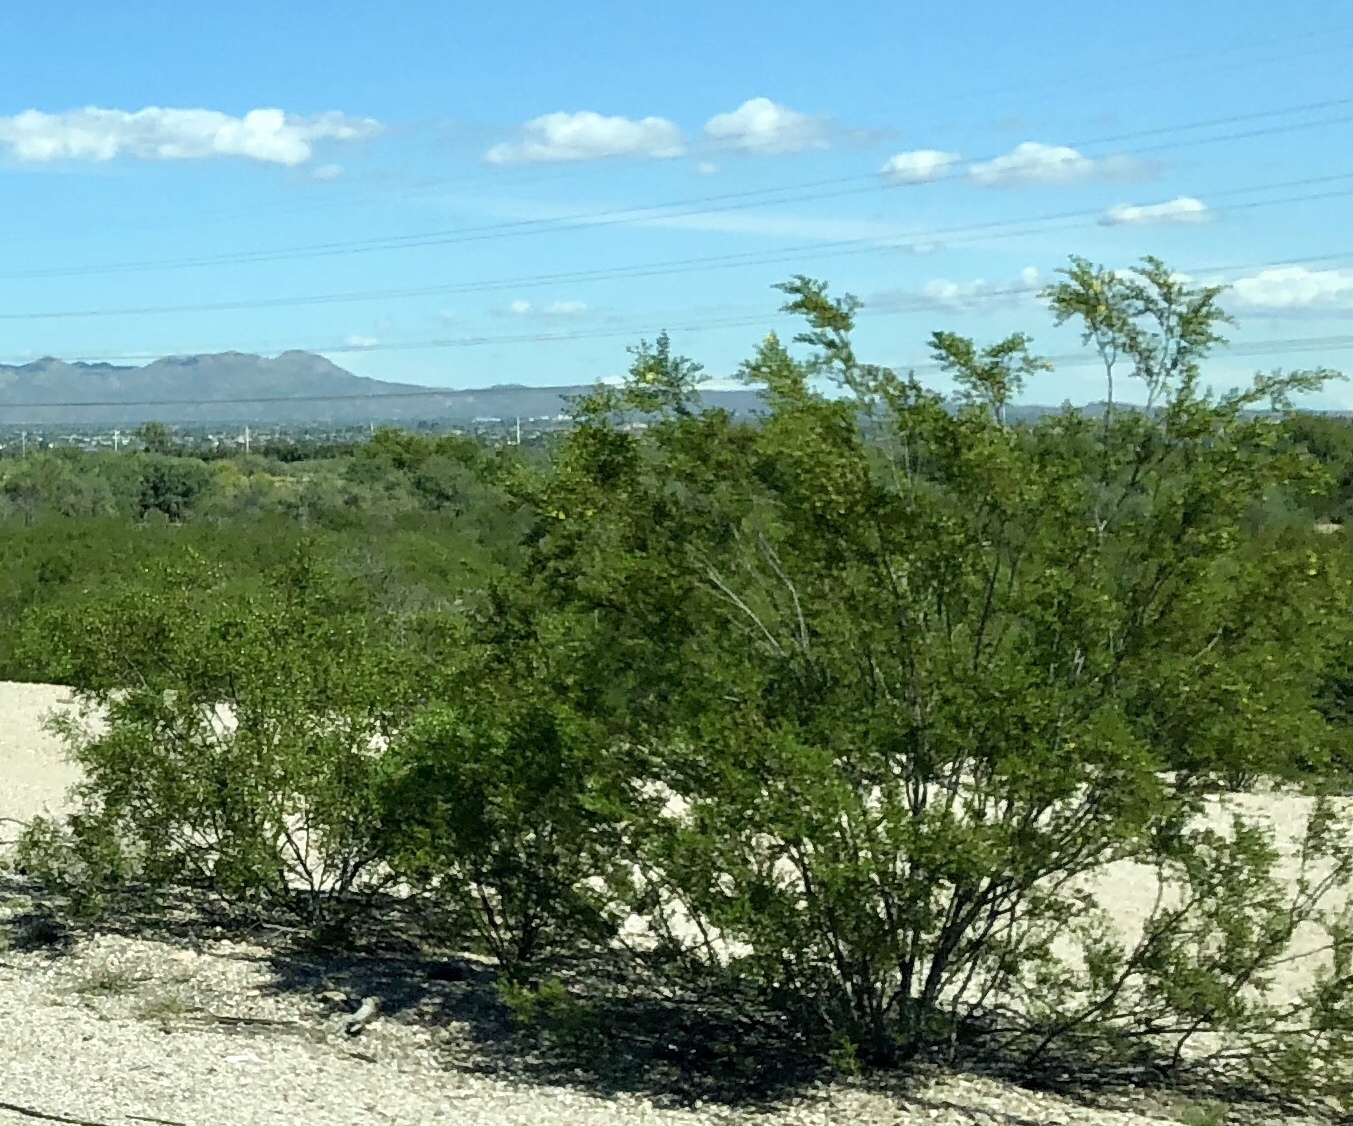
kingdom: Plantae
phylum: Tracheophyta
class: Magnoliopsida
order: Zygophyllales
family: Zygophyllaceae
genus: Larrea
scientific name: Larrea tridentata
